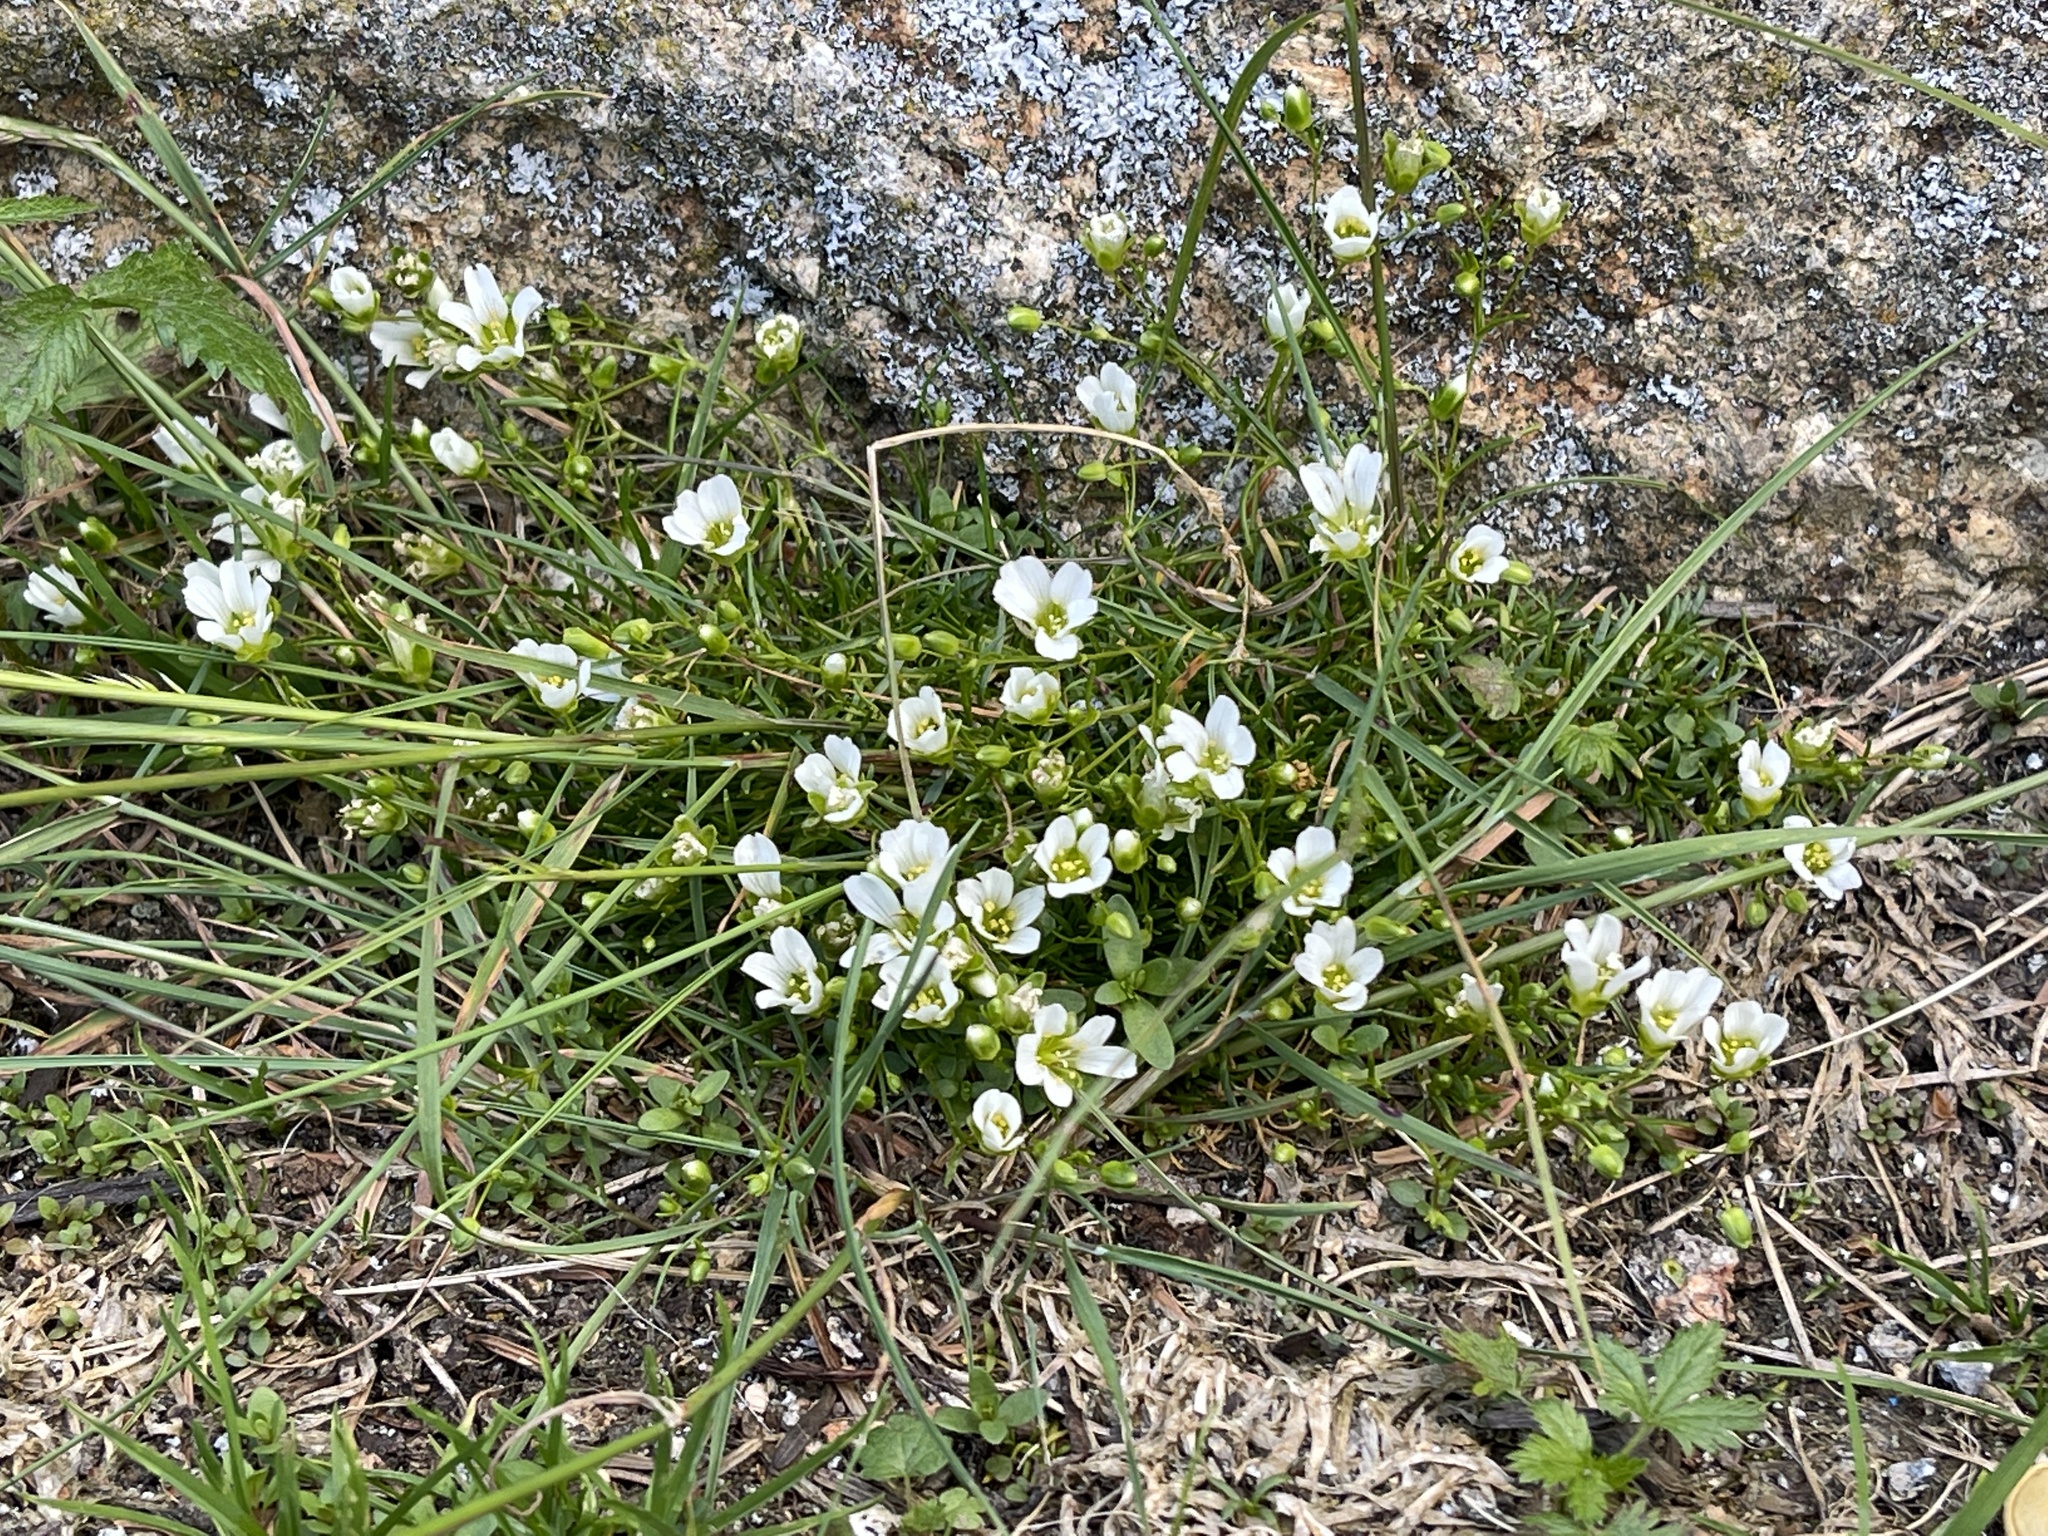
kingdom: Plantae
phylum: Tracheophyta
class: Magnoliopsida
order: Caryophyllales
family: Caryophyllaceae
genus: Geocarpon
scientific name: Geocarpon groenlandicum
